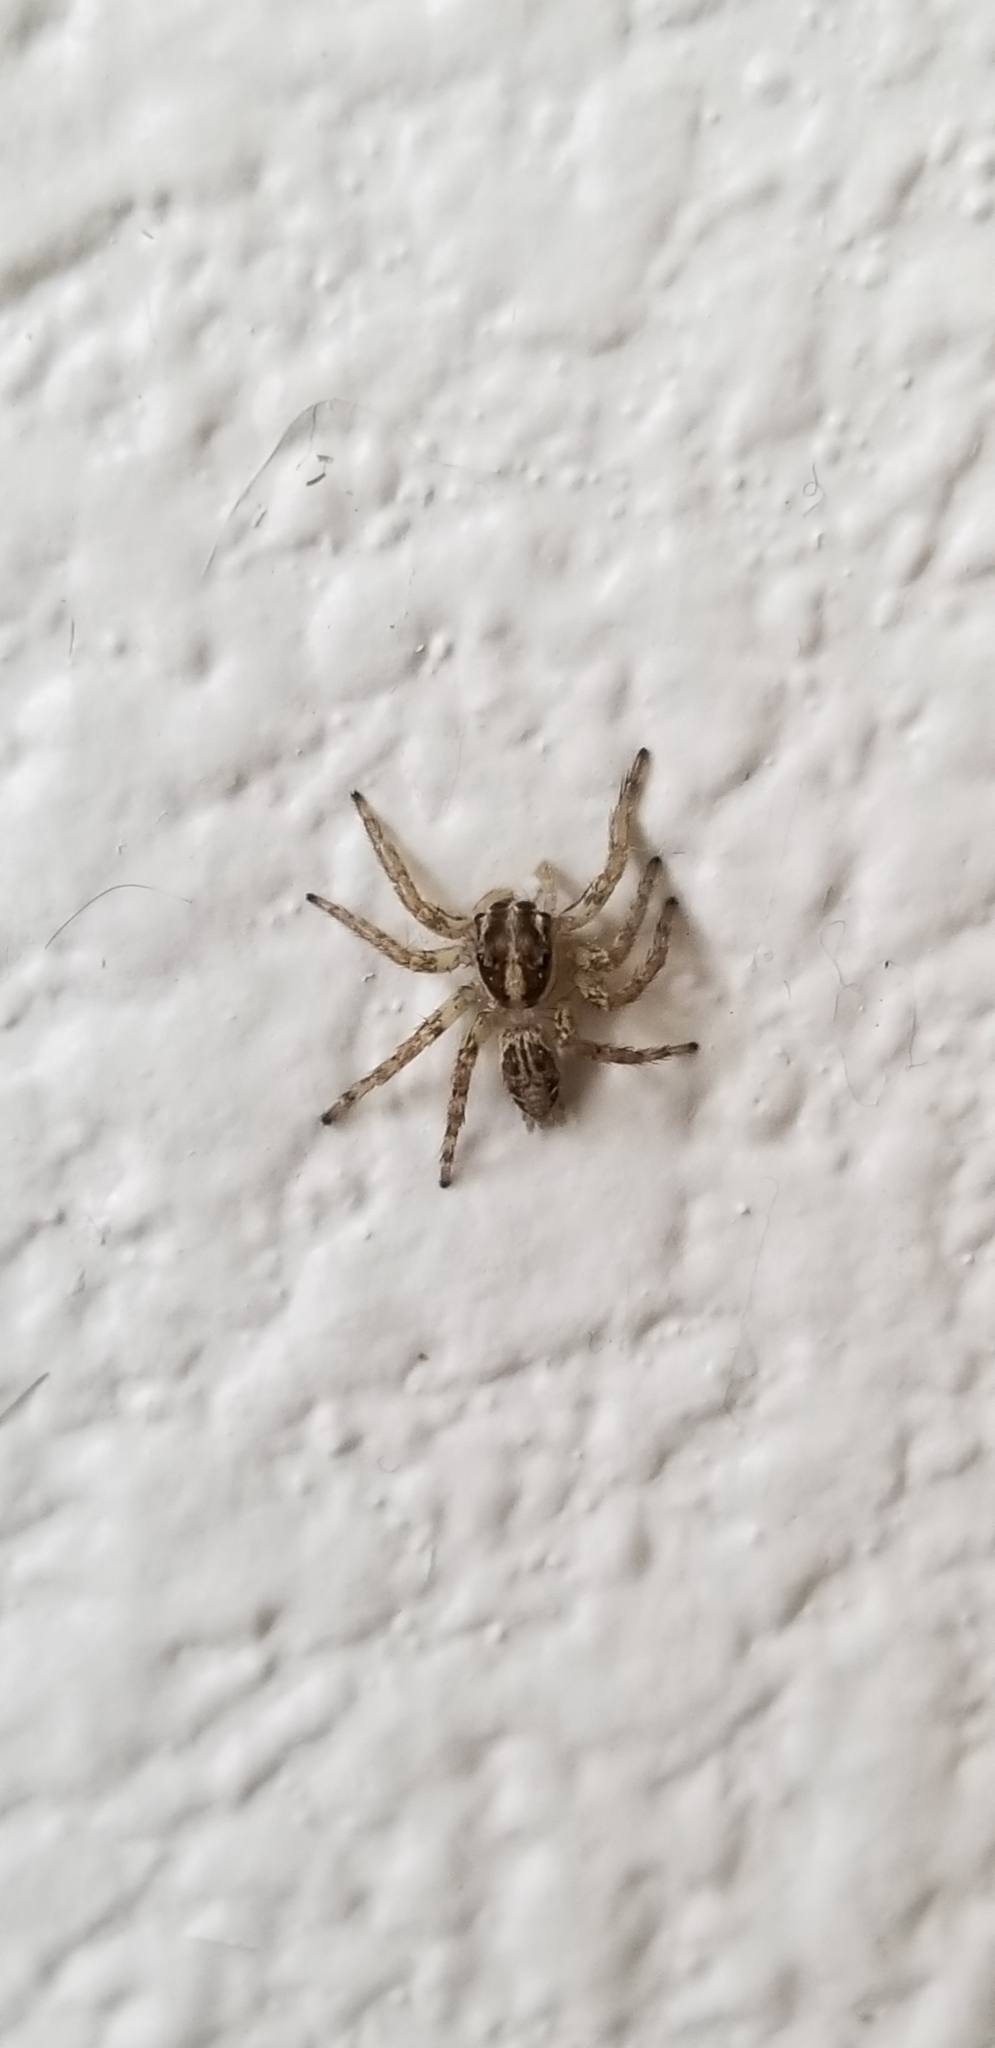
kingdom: Animalia
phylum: Arthropoda
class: Arachnida
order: Araneae
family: Salticidae
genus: Plexippus
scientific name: Plexippus paykulli
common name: Pantropical jumper
